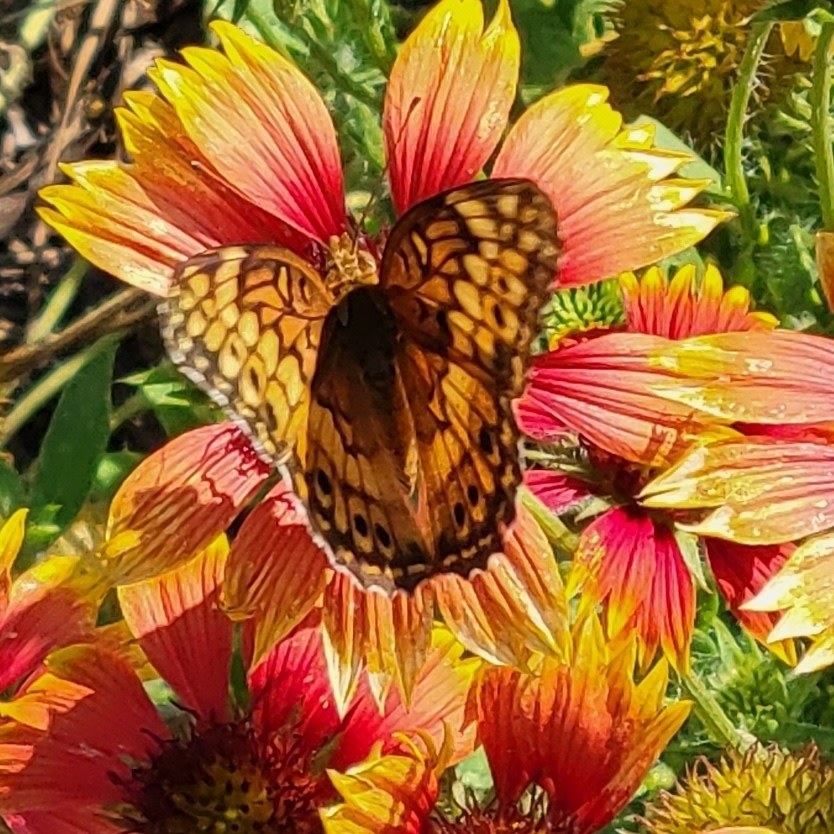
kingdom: Animalia
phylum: Arthropoda
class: Insecta
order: Lepidoptera
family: Nymphalidae
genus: Euptoieta
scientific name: Euptoieta claudia
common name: Variegated fritillary
